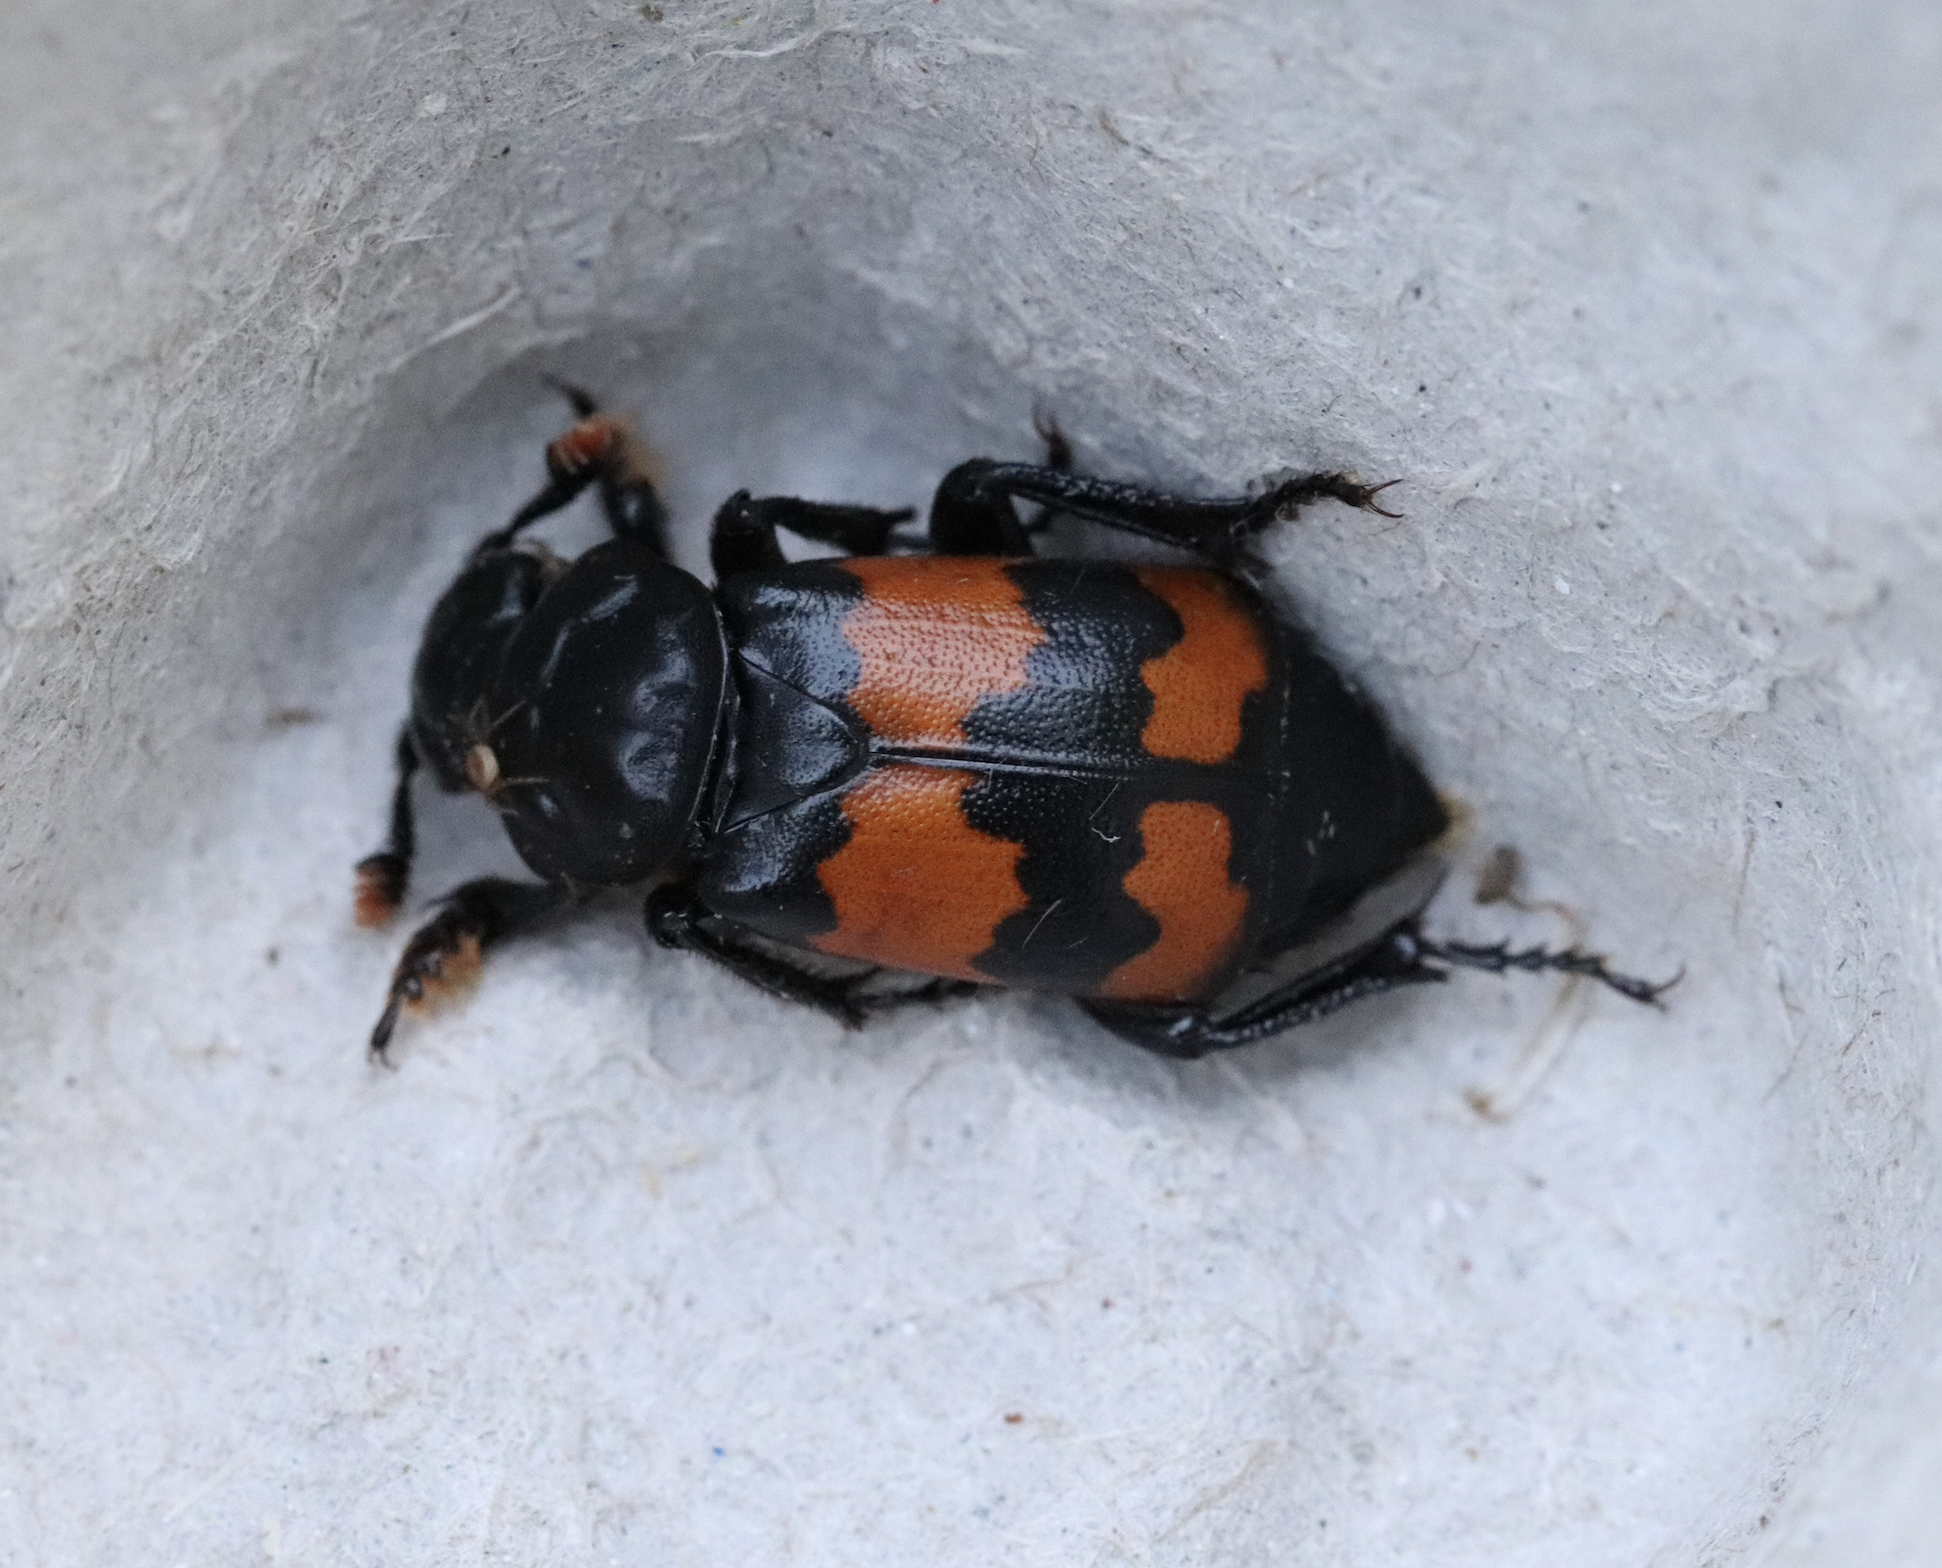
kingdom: Animalia
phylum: Arthropoda
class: Insecta
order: Coleoptera
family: Staphylinidae
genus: Nicrophorus
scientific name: Nicrophorus investigator
